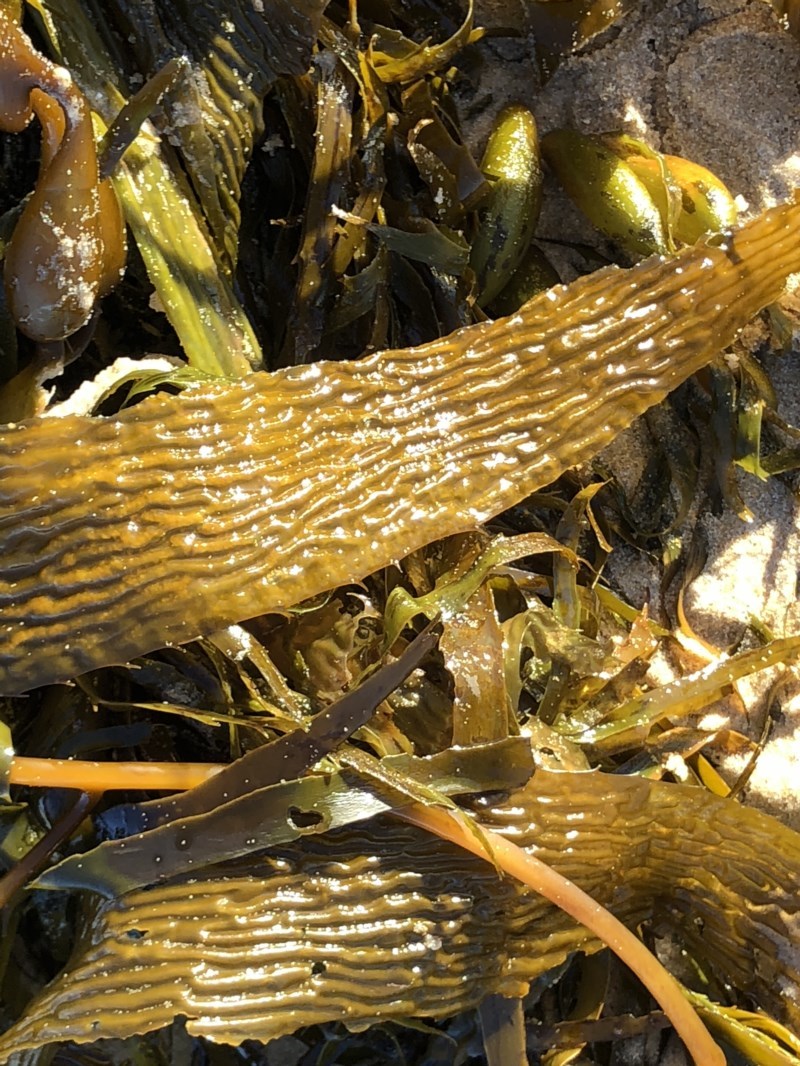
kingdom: Chromista
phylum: Ochrophyta
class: Phaeophyceae
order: Laminariales
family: Laminariaceae
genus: Macrocystis
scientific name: Macrocystis pyrifera
